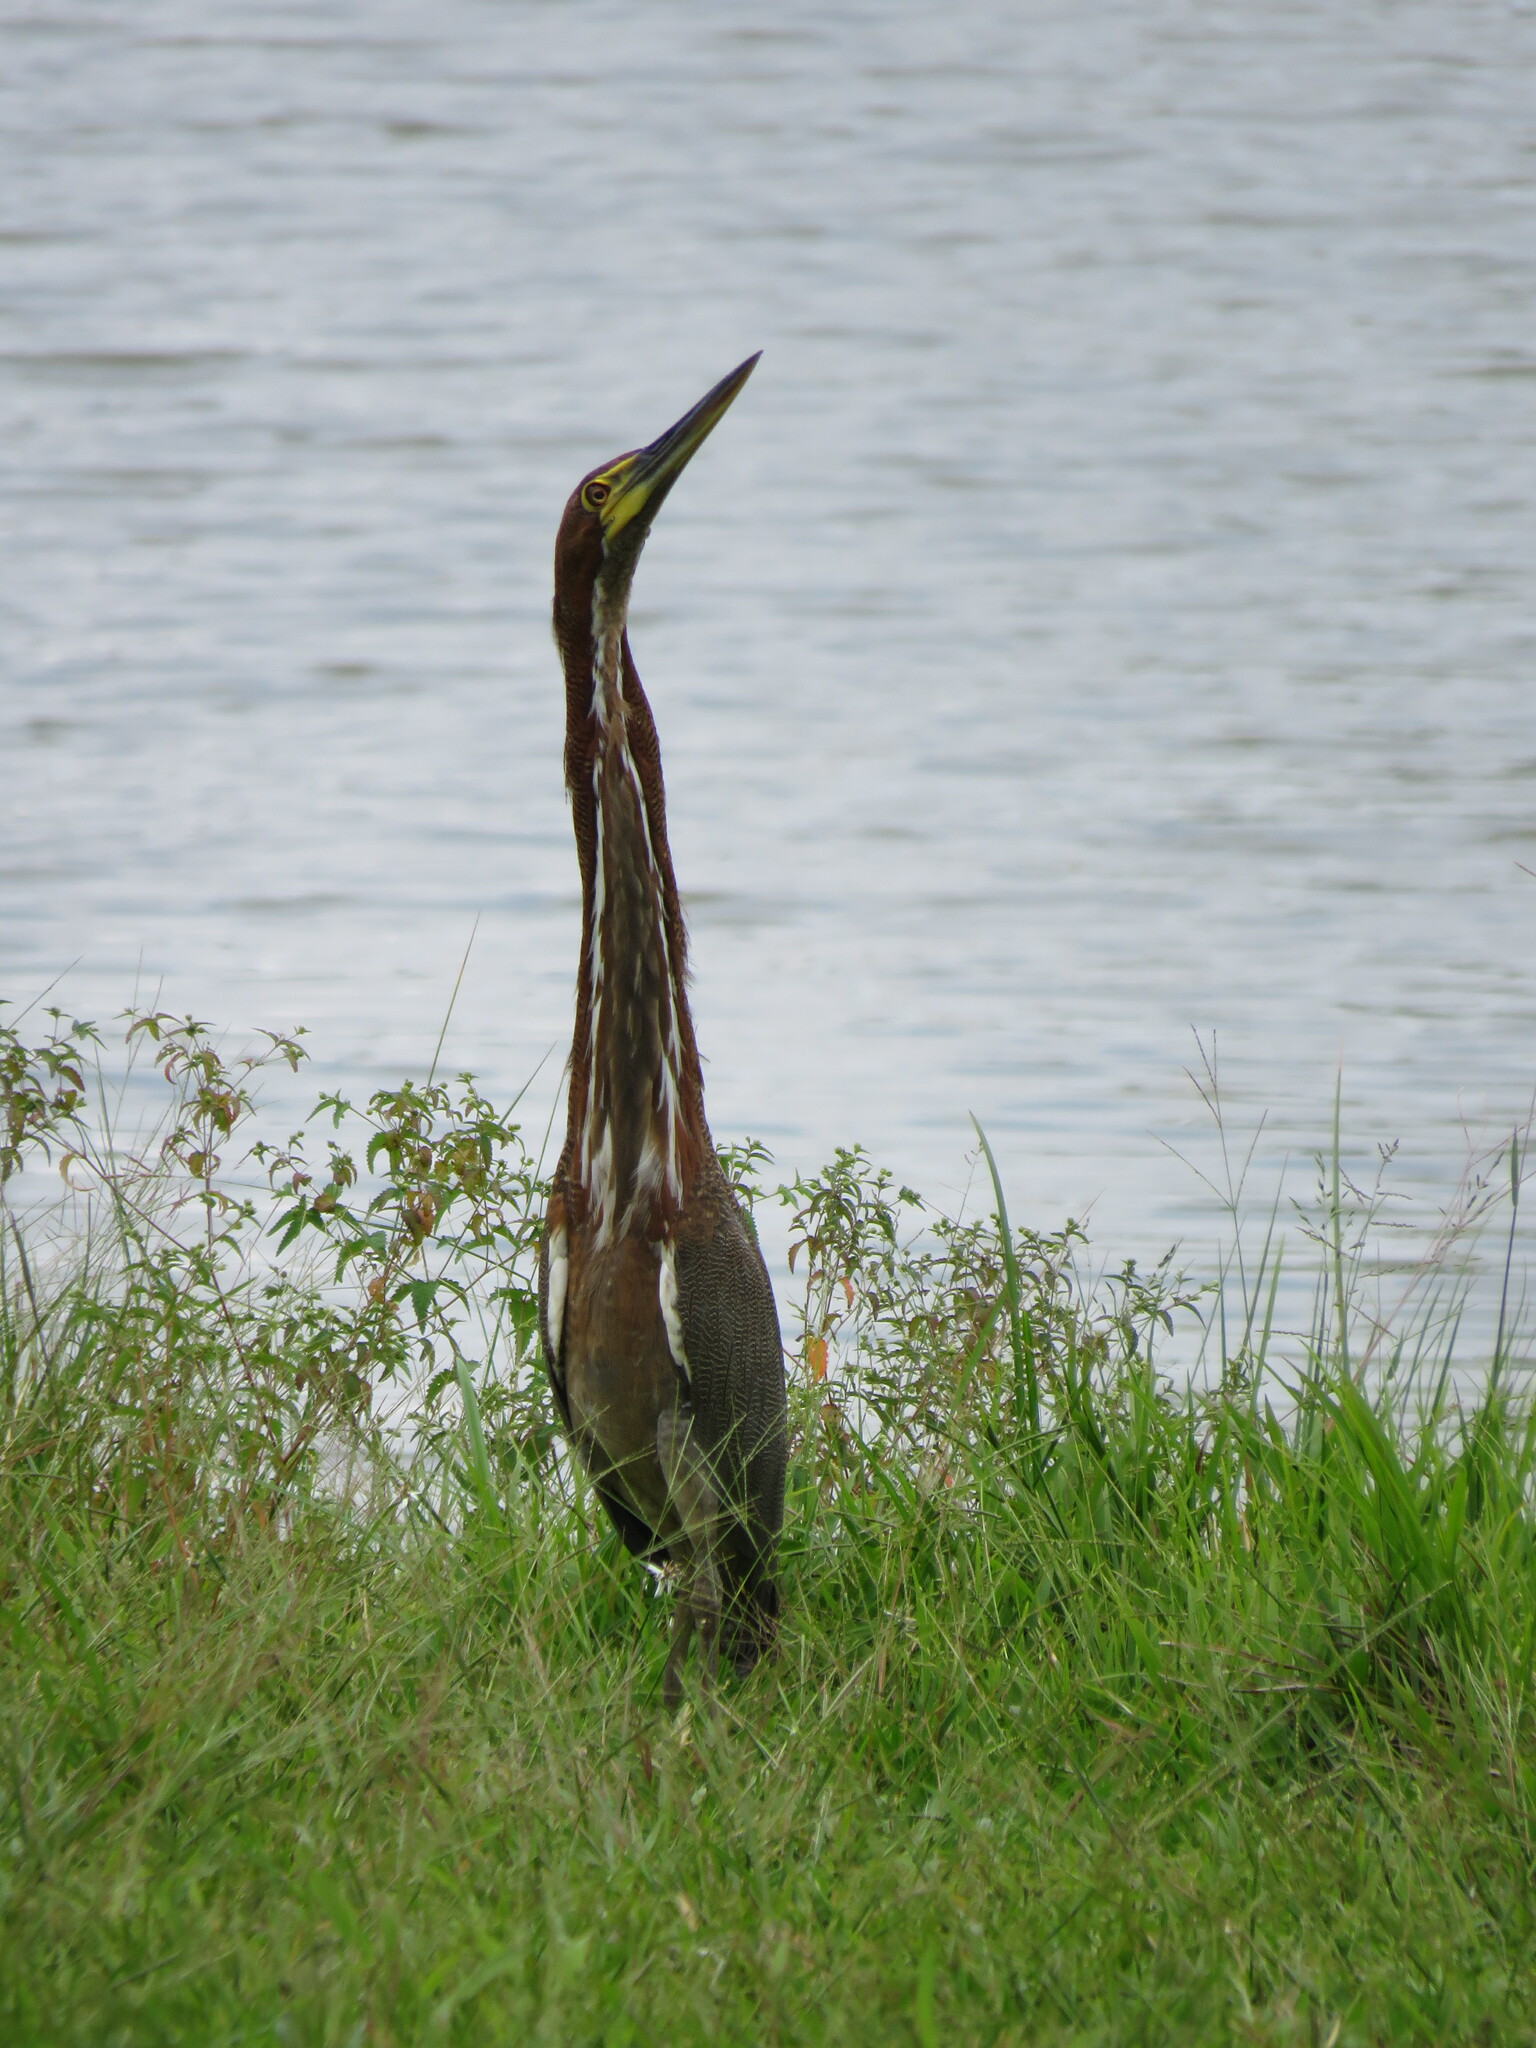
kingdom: Animalia
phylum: Chordata
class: Aves
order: Pelecaniformes
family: Ardeidae
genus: Tigrisoma
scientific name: Tigrisoma lineatum
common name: Rufescent tiger-heron
